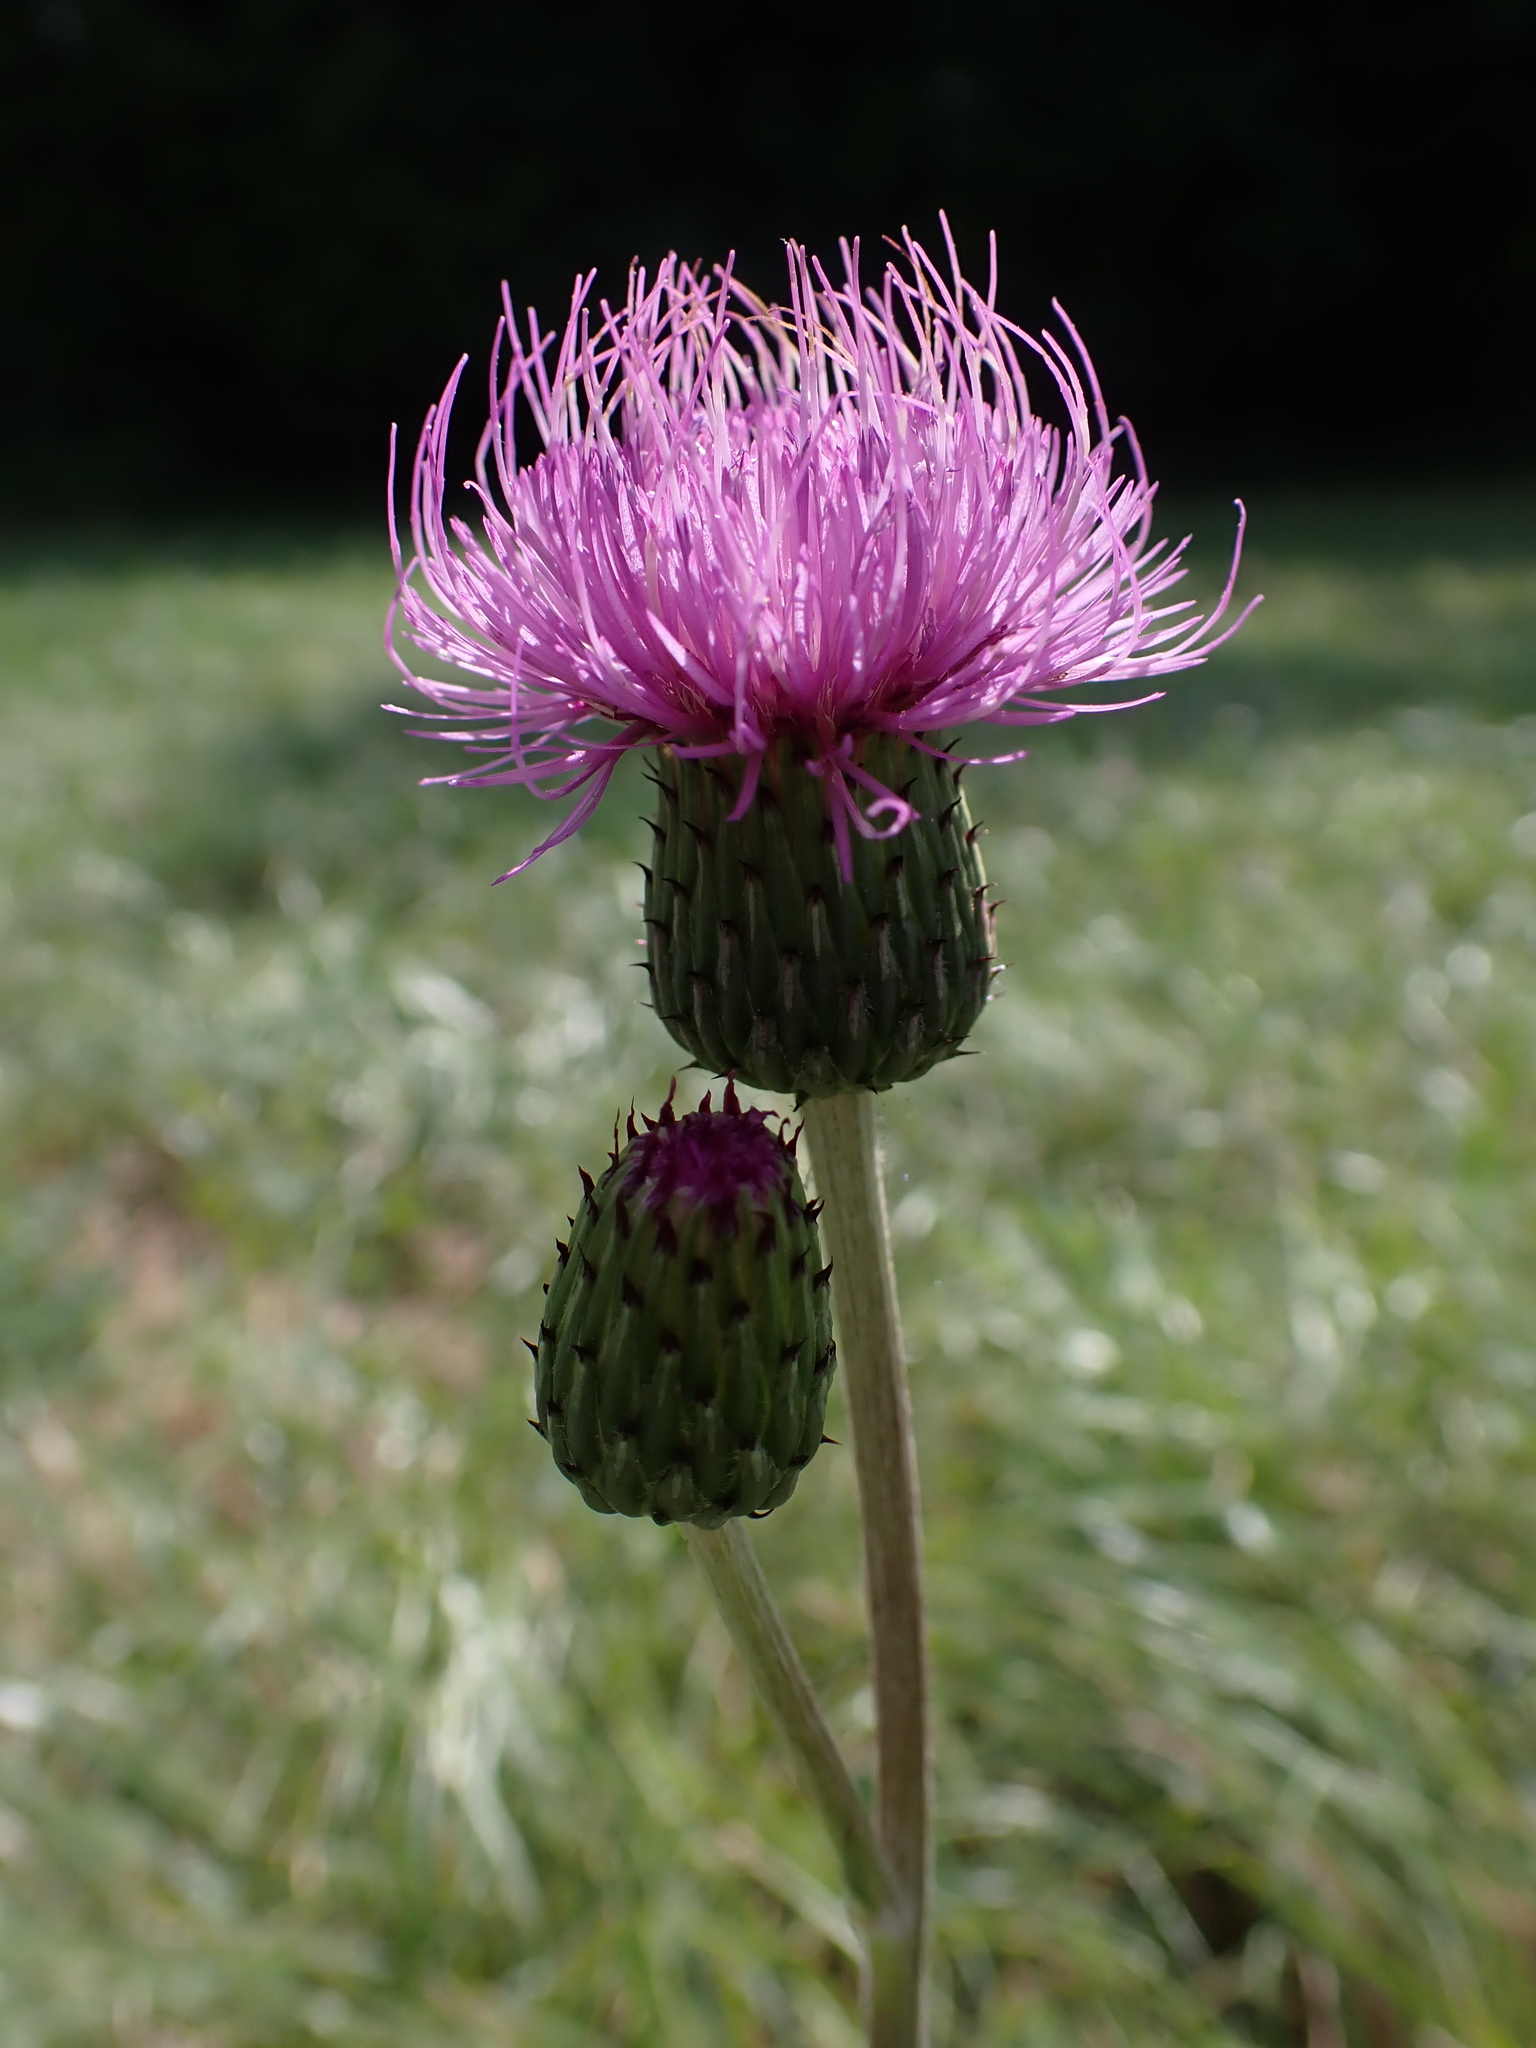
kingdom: Plantae
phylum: Tracheophyta
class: Magnoliopsida
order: Asterales
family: Asteraceae
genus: Cirsium
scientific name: Cirsium canum
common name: Queen anne's thistle
